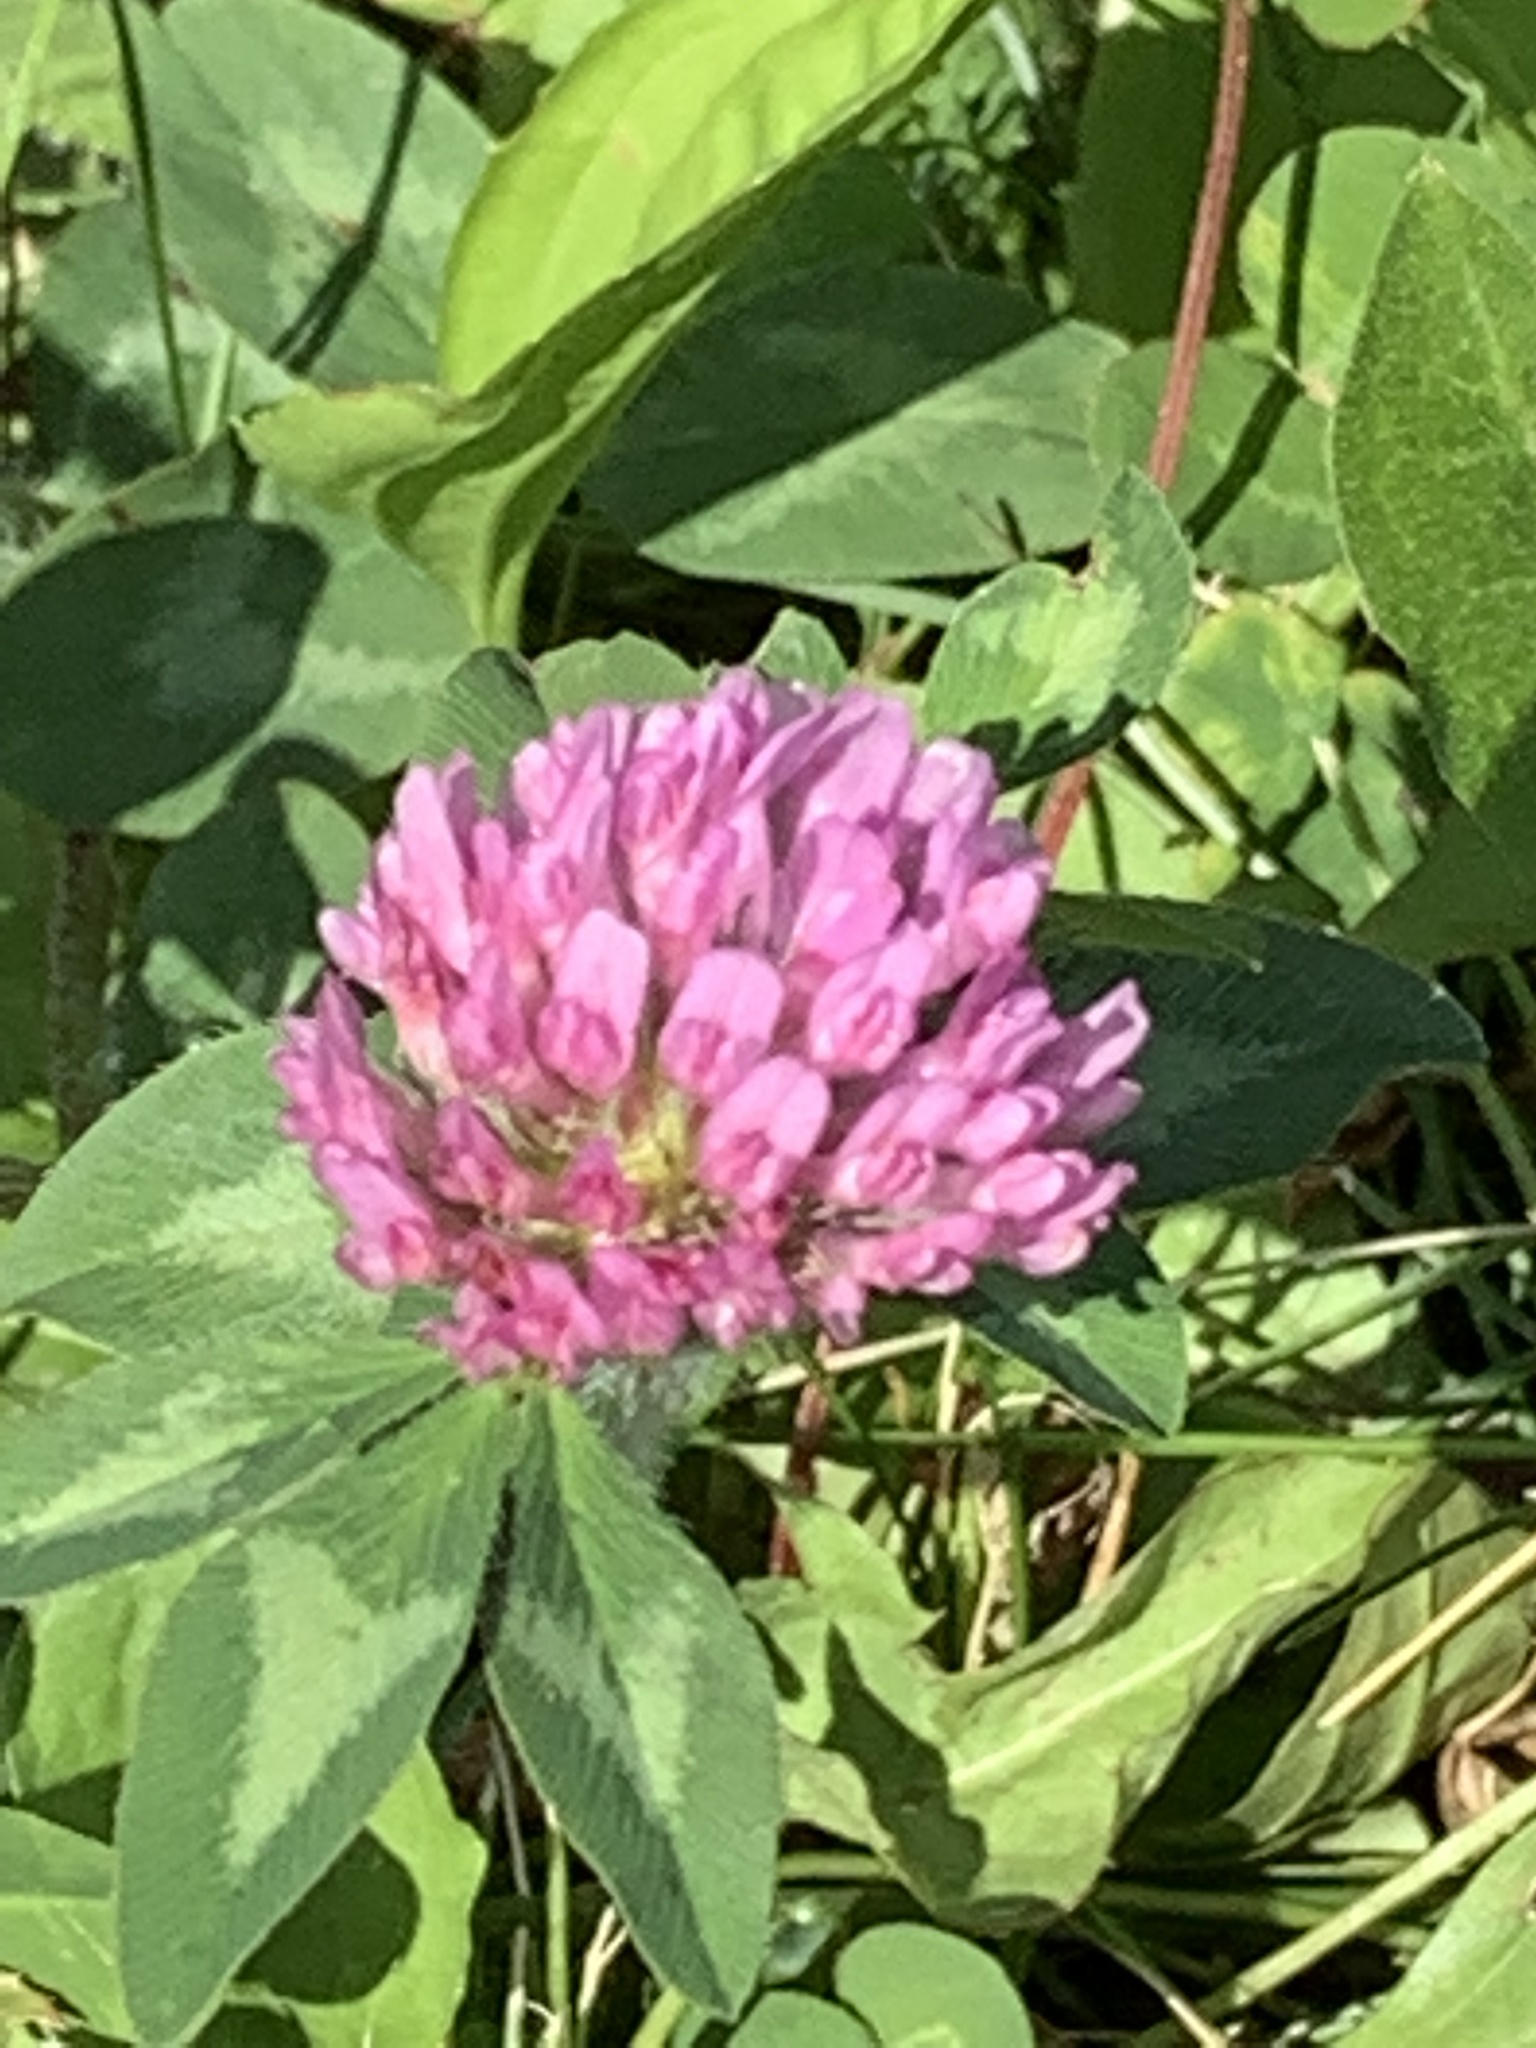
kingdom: Plantae
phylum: Tracheophyta
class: Magnoliopsida
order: Fabales
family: Fabaceae
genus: Trifolium
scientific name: Trifolium pratense
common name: Red clover
